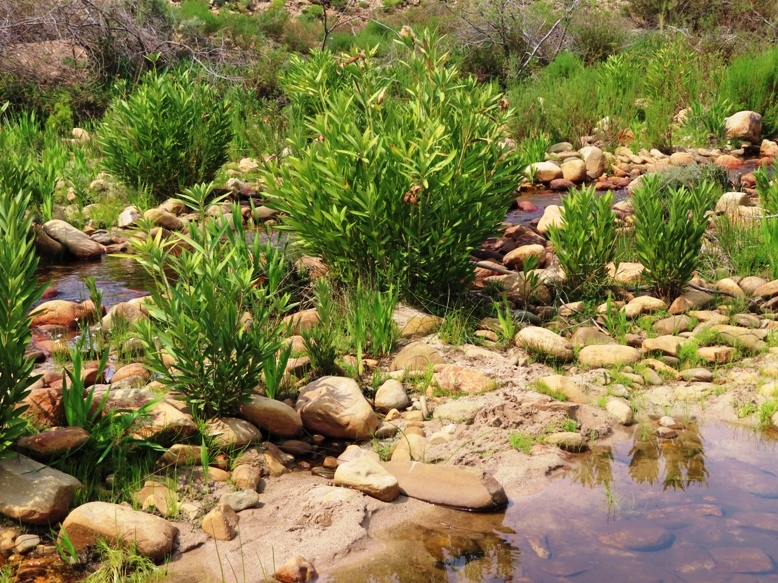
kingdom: Plantae
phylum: Tracheophyta
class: Magnoliopsida
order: Gentianales
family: Apocynaceae
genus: Nerium
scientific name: Nerium oleander
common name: Oleander
